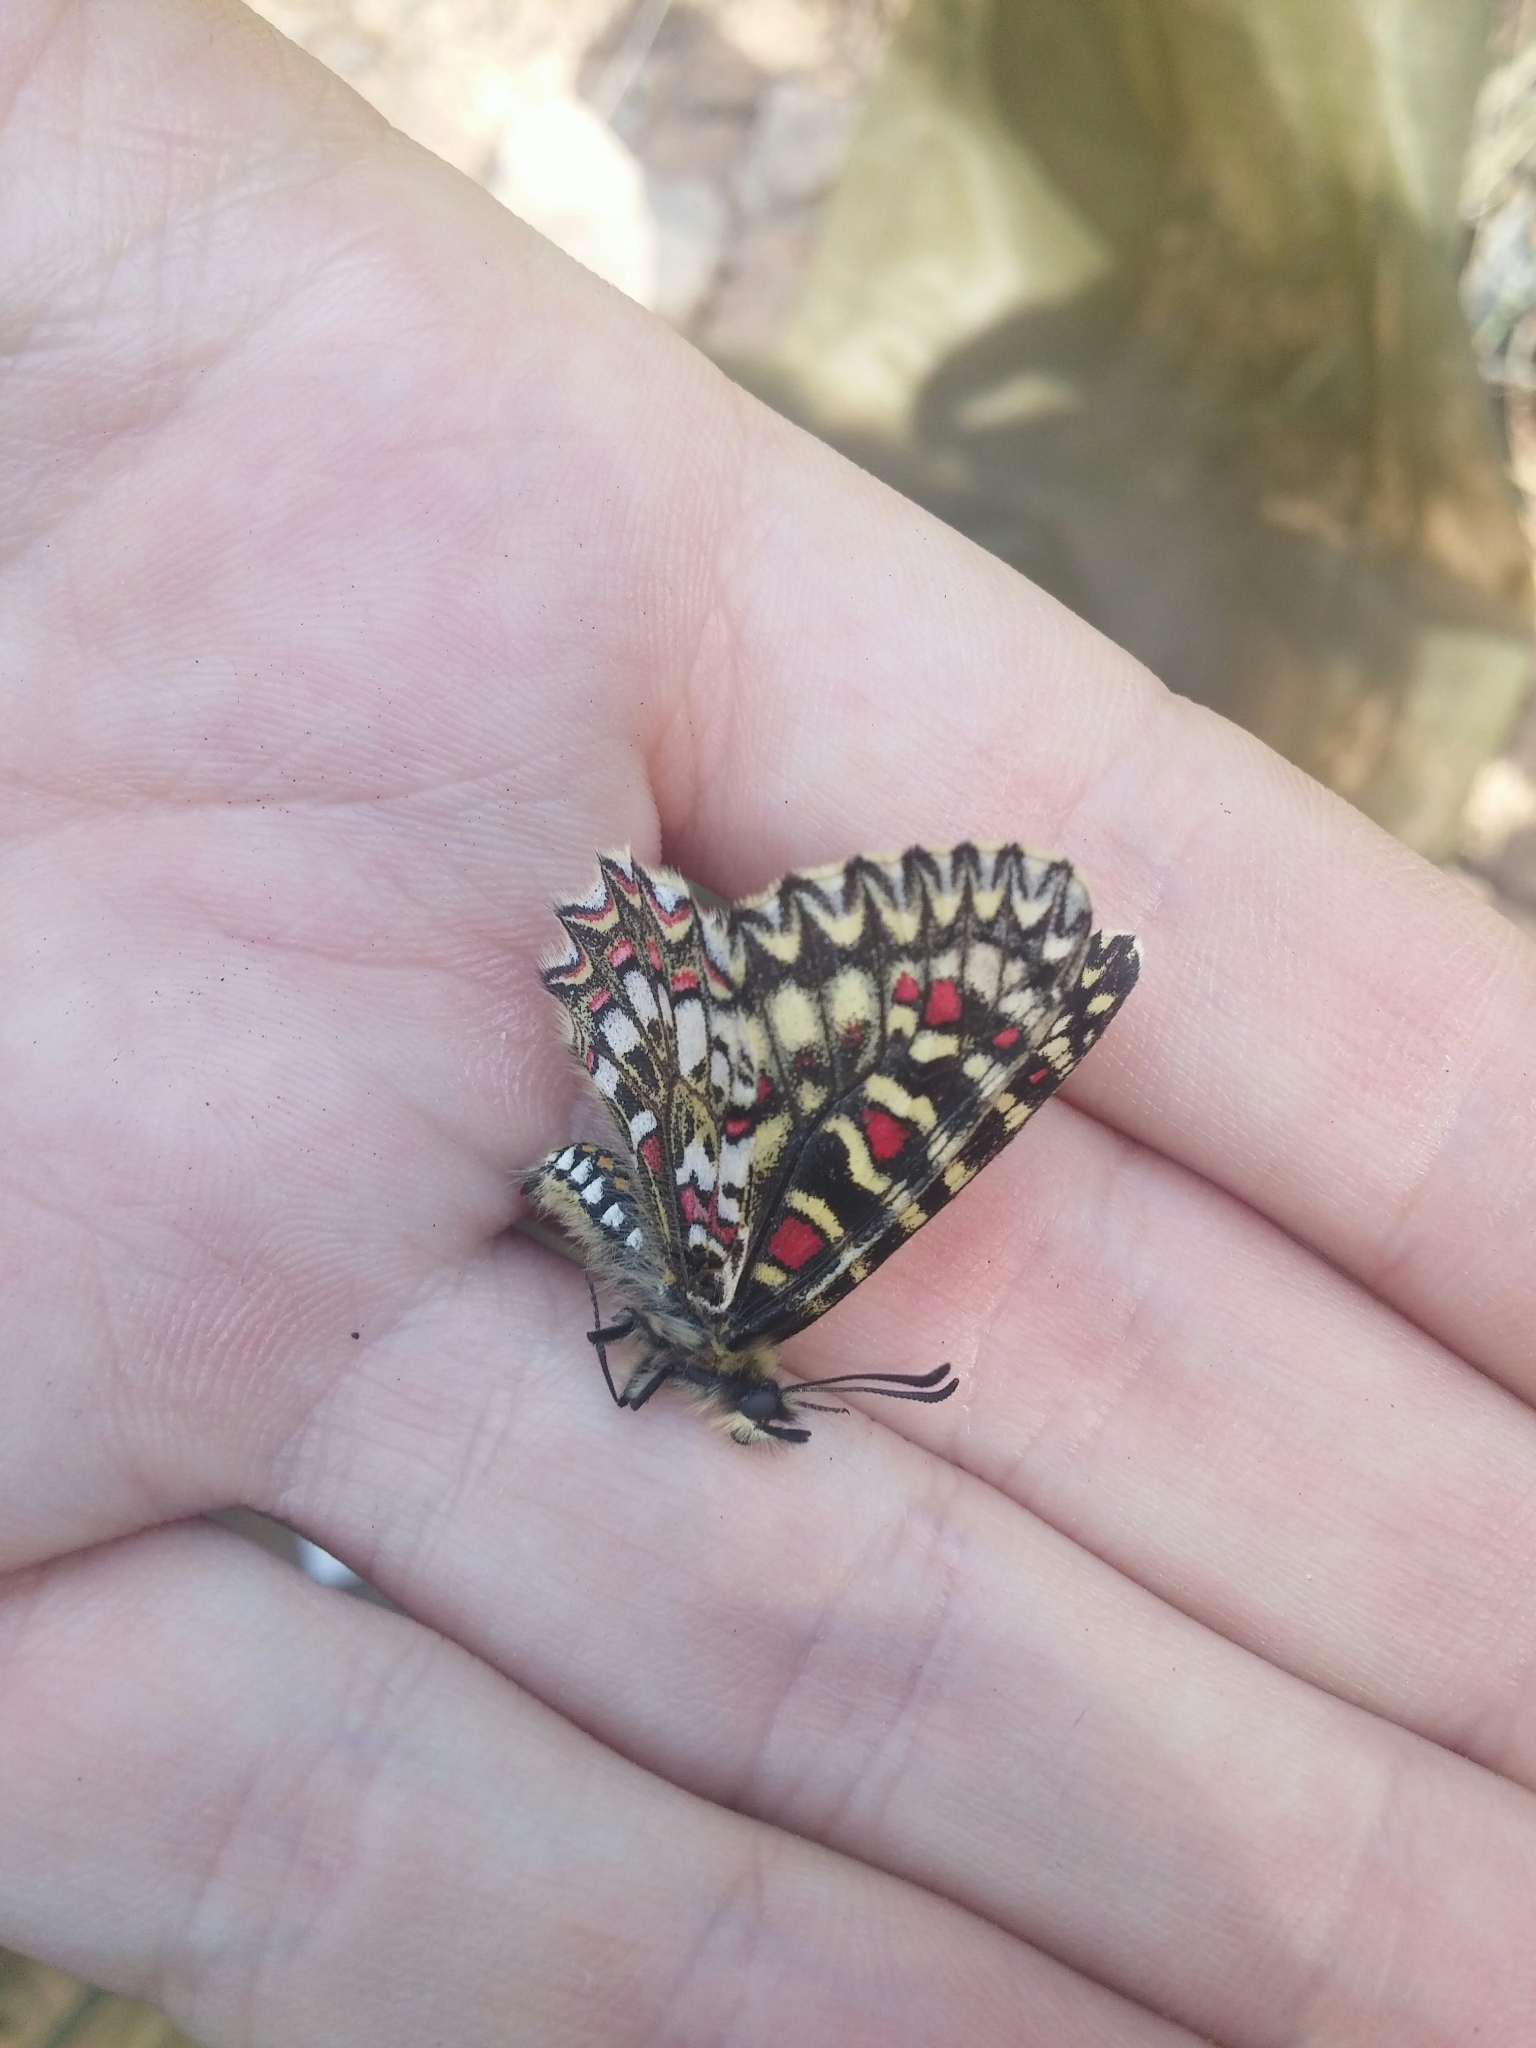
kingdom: Animalia
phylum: Arthropoda
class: Insecta
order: Lepidoptera
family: Papilionidae
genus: Zerynthia
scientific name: Zerynthia rumina
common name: Spanish festoon
